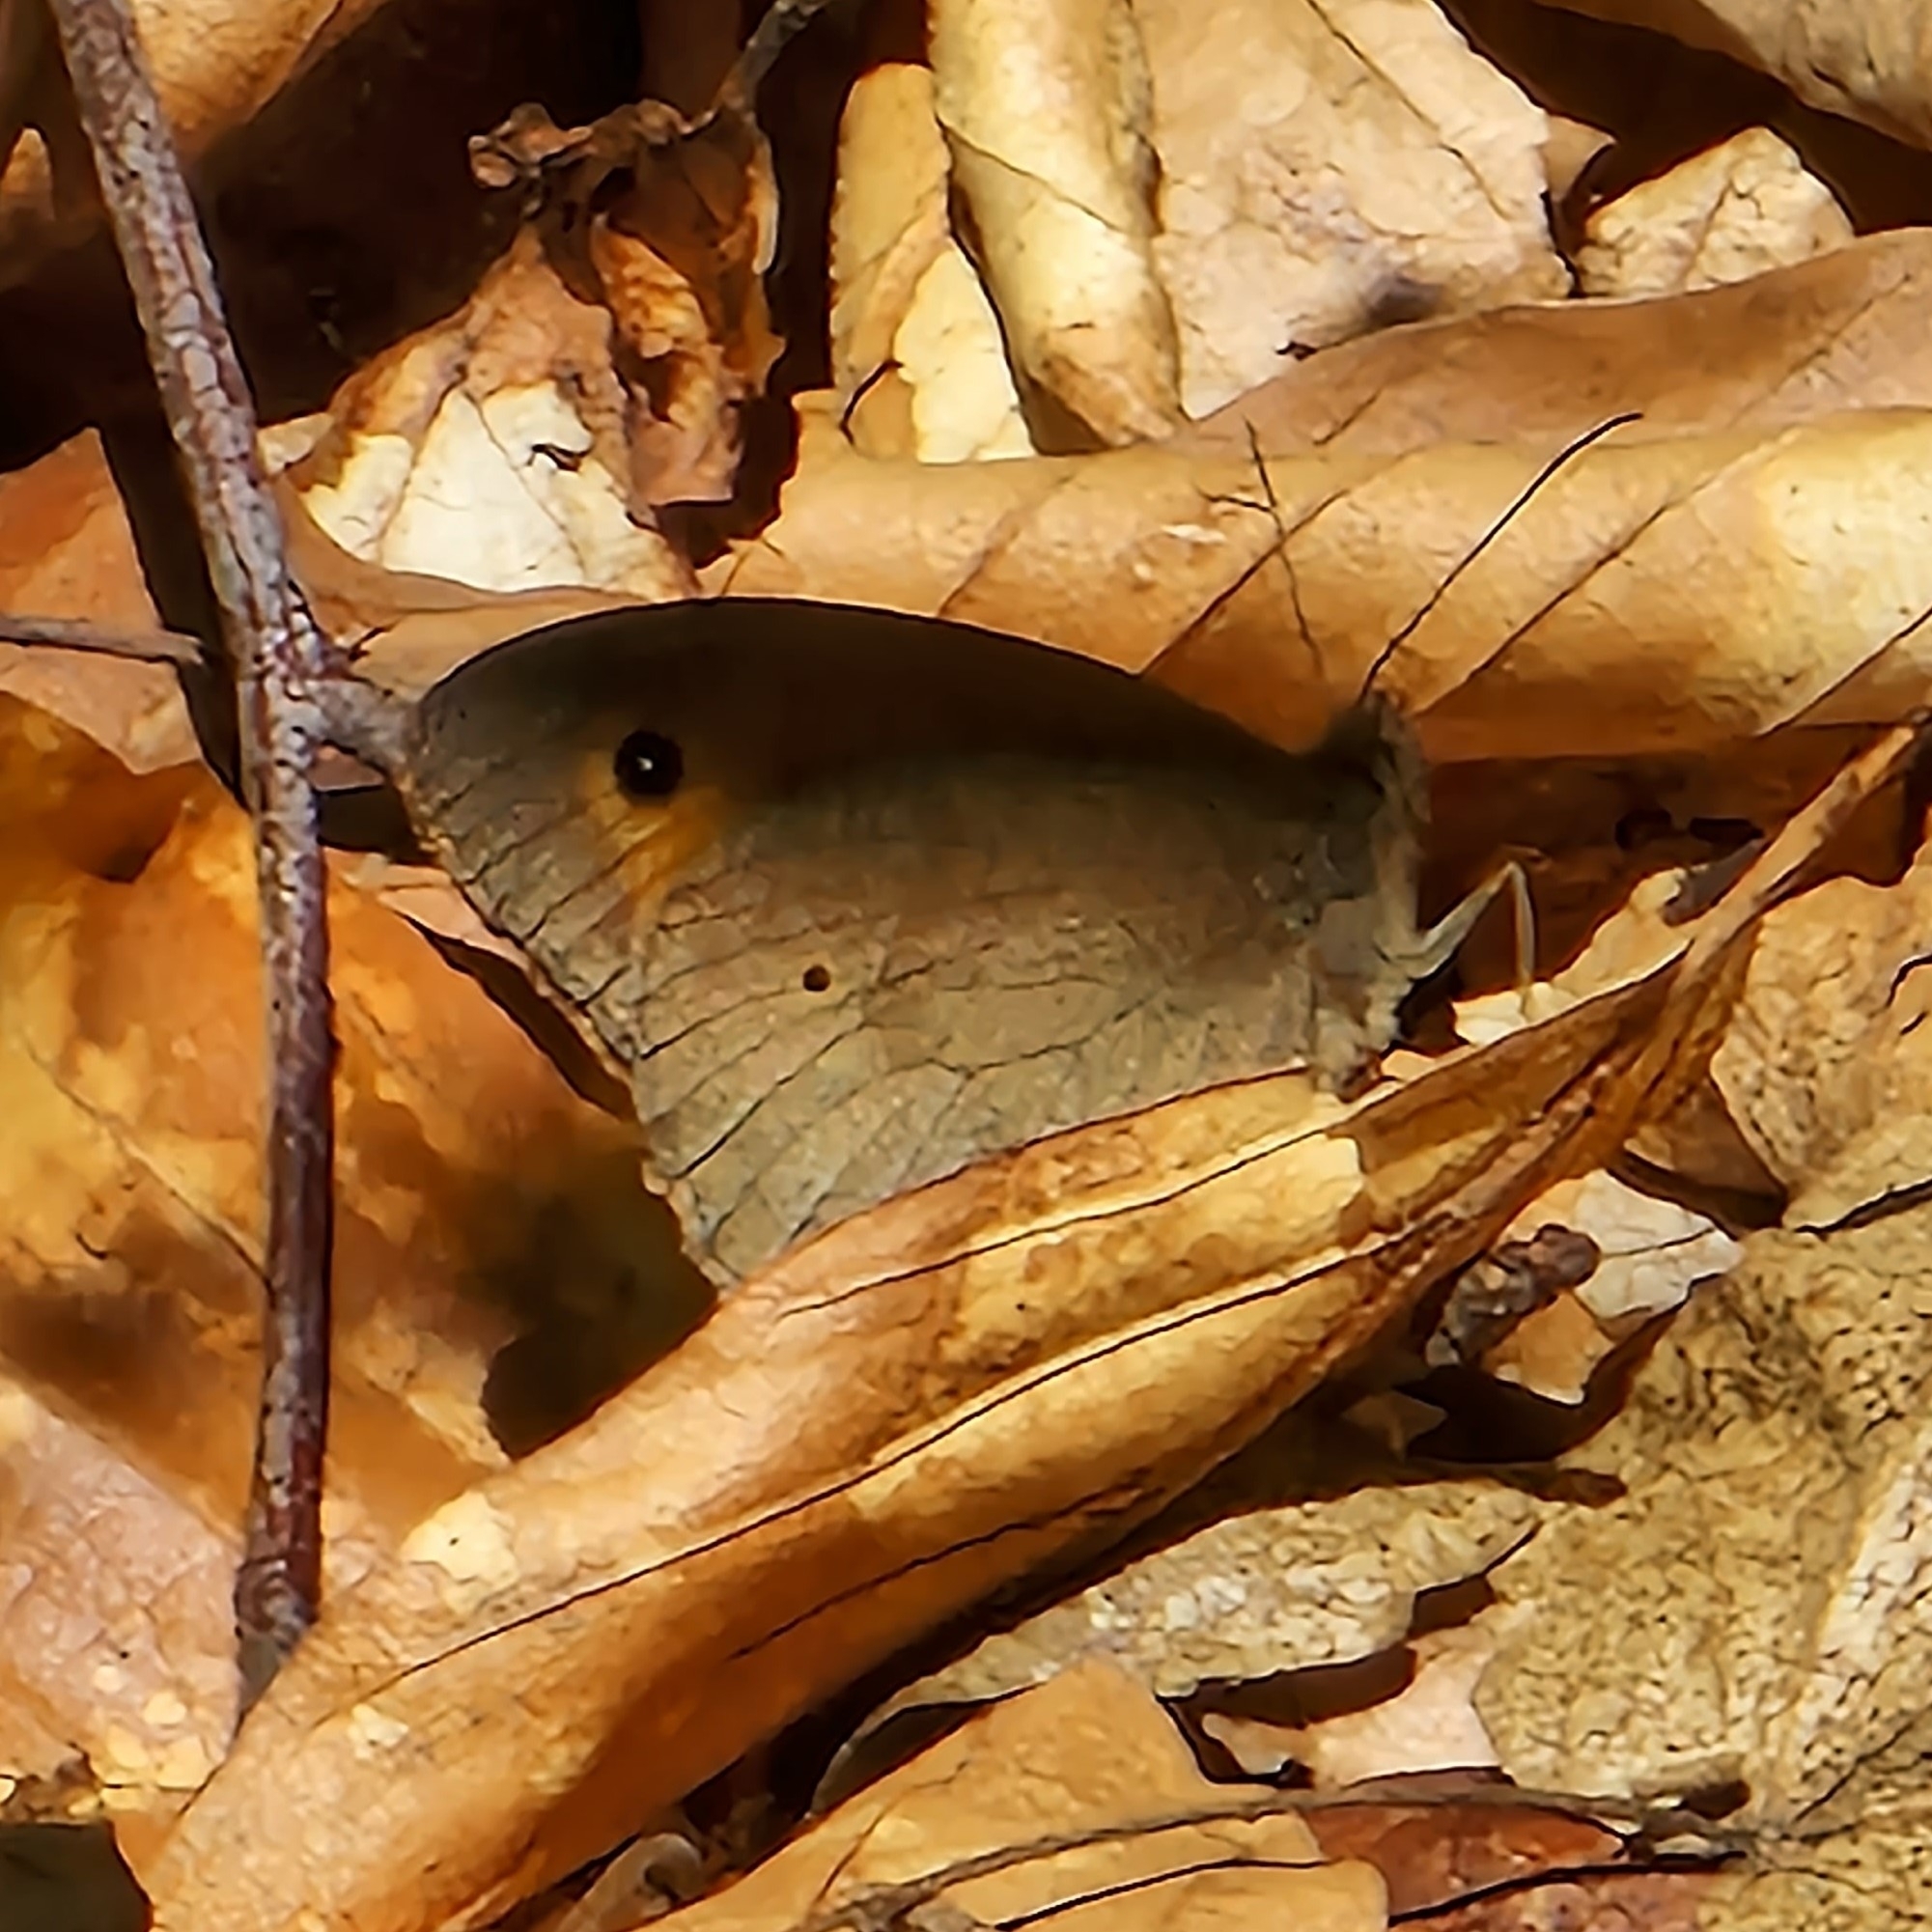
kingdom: Animalia
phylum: Arthropoda
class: Insecta
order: Lepidoptera
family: Nymphalidae
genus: Maniola
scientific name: Maniola jurtina
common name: Meadow brown
